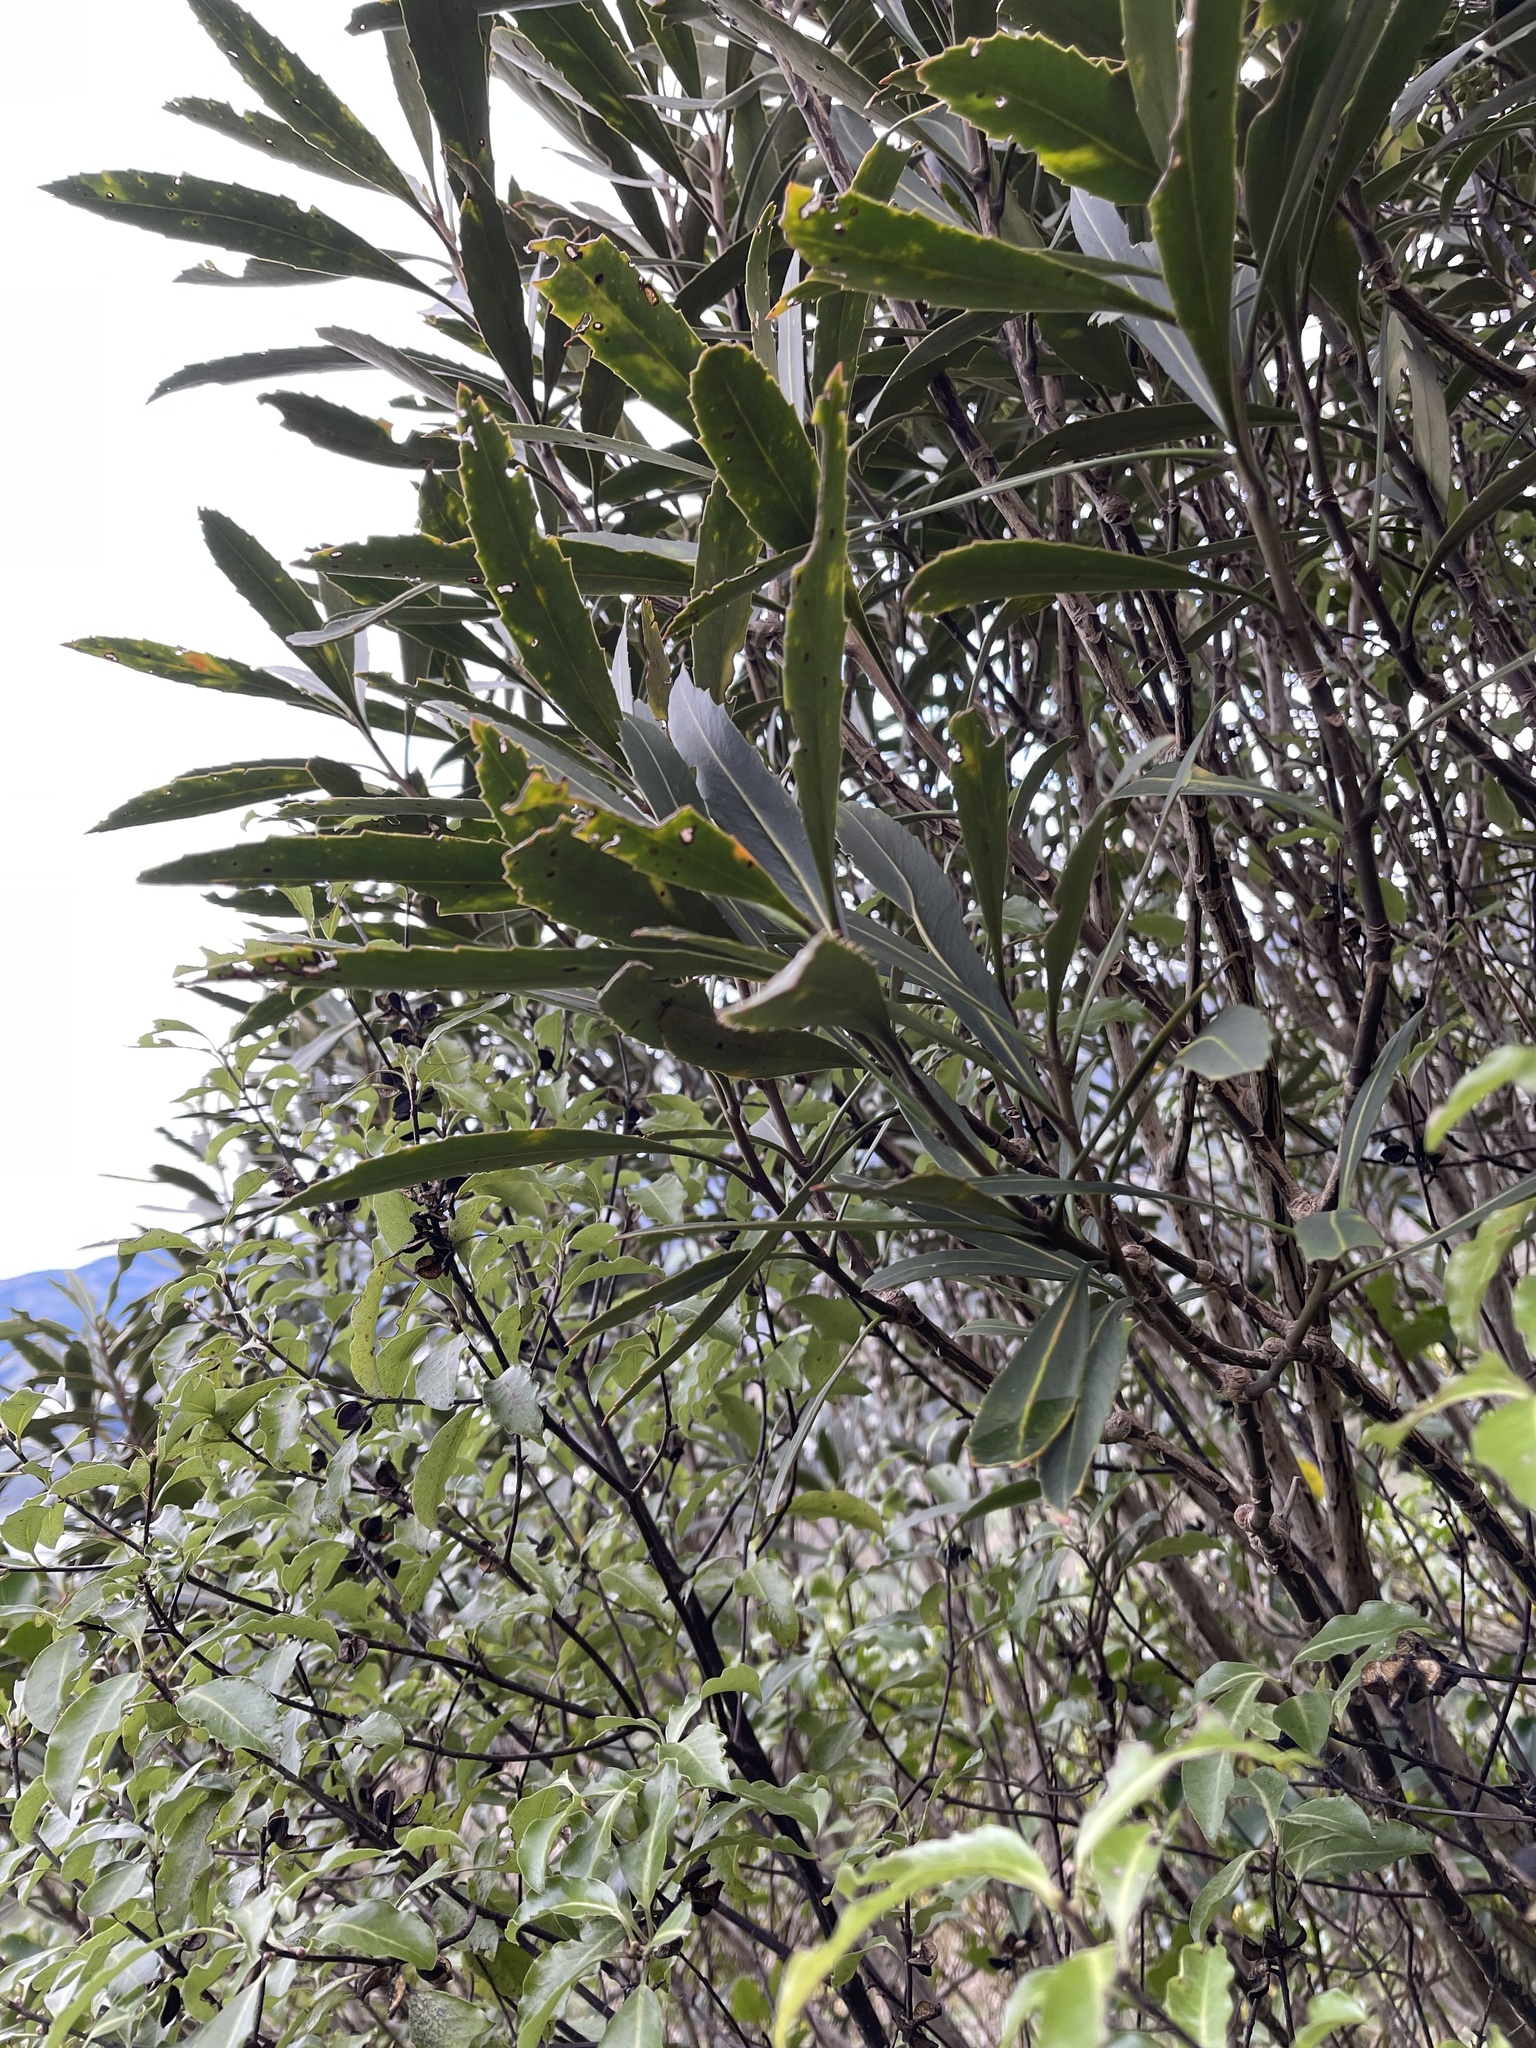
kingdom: Plantae
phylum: Tracheophyta
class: Magnoliopsida
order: Apiales
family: Araliaceae
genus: Pseudopanax
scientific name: Pseudopanax crassifolius
